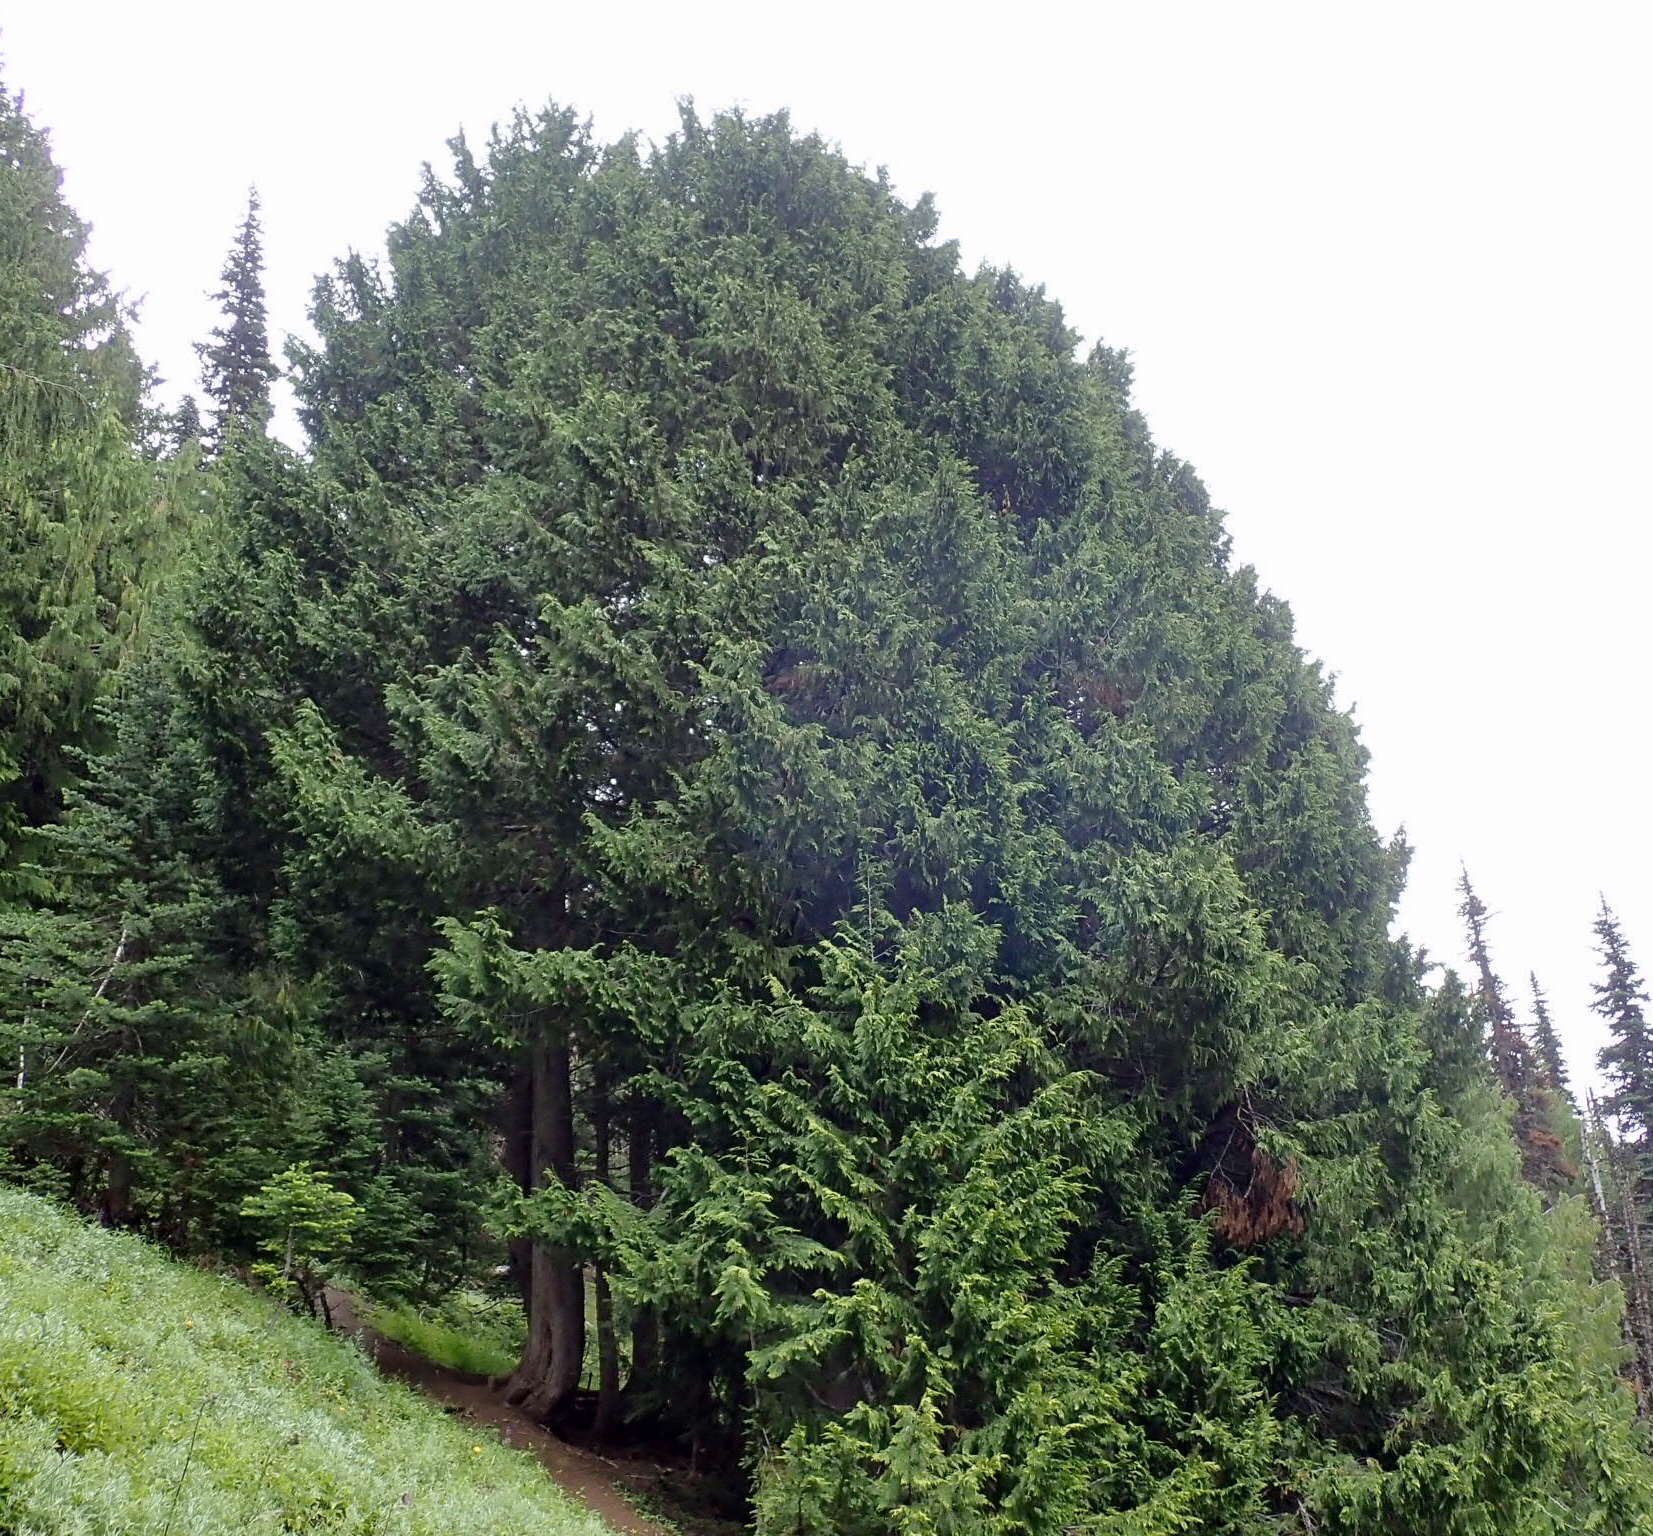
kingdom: Plantae
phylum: Tracheophyta
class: Pinopsida
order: Pinales
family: Cupressaceae
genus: Xanthocyparis
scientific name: Xanthocyparis nootkatensis
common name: Nootka cypress
